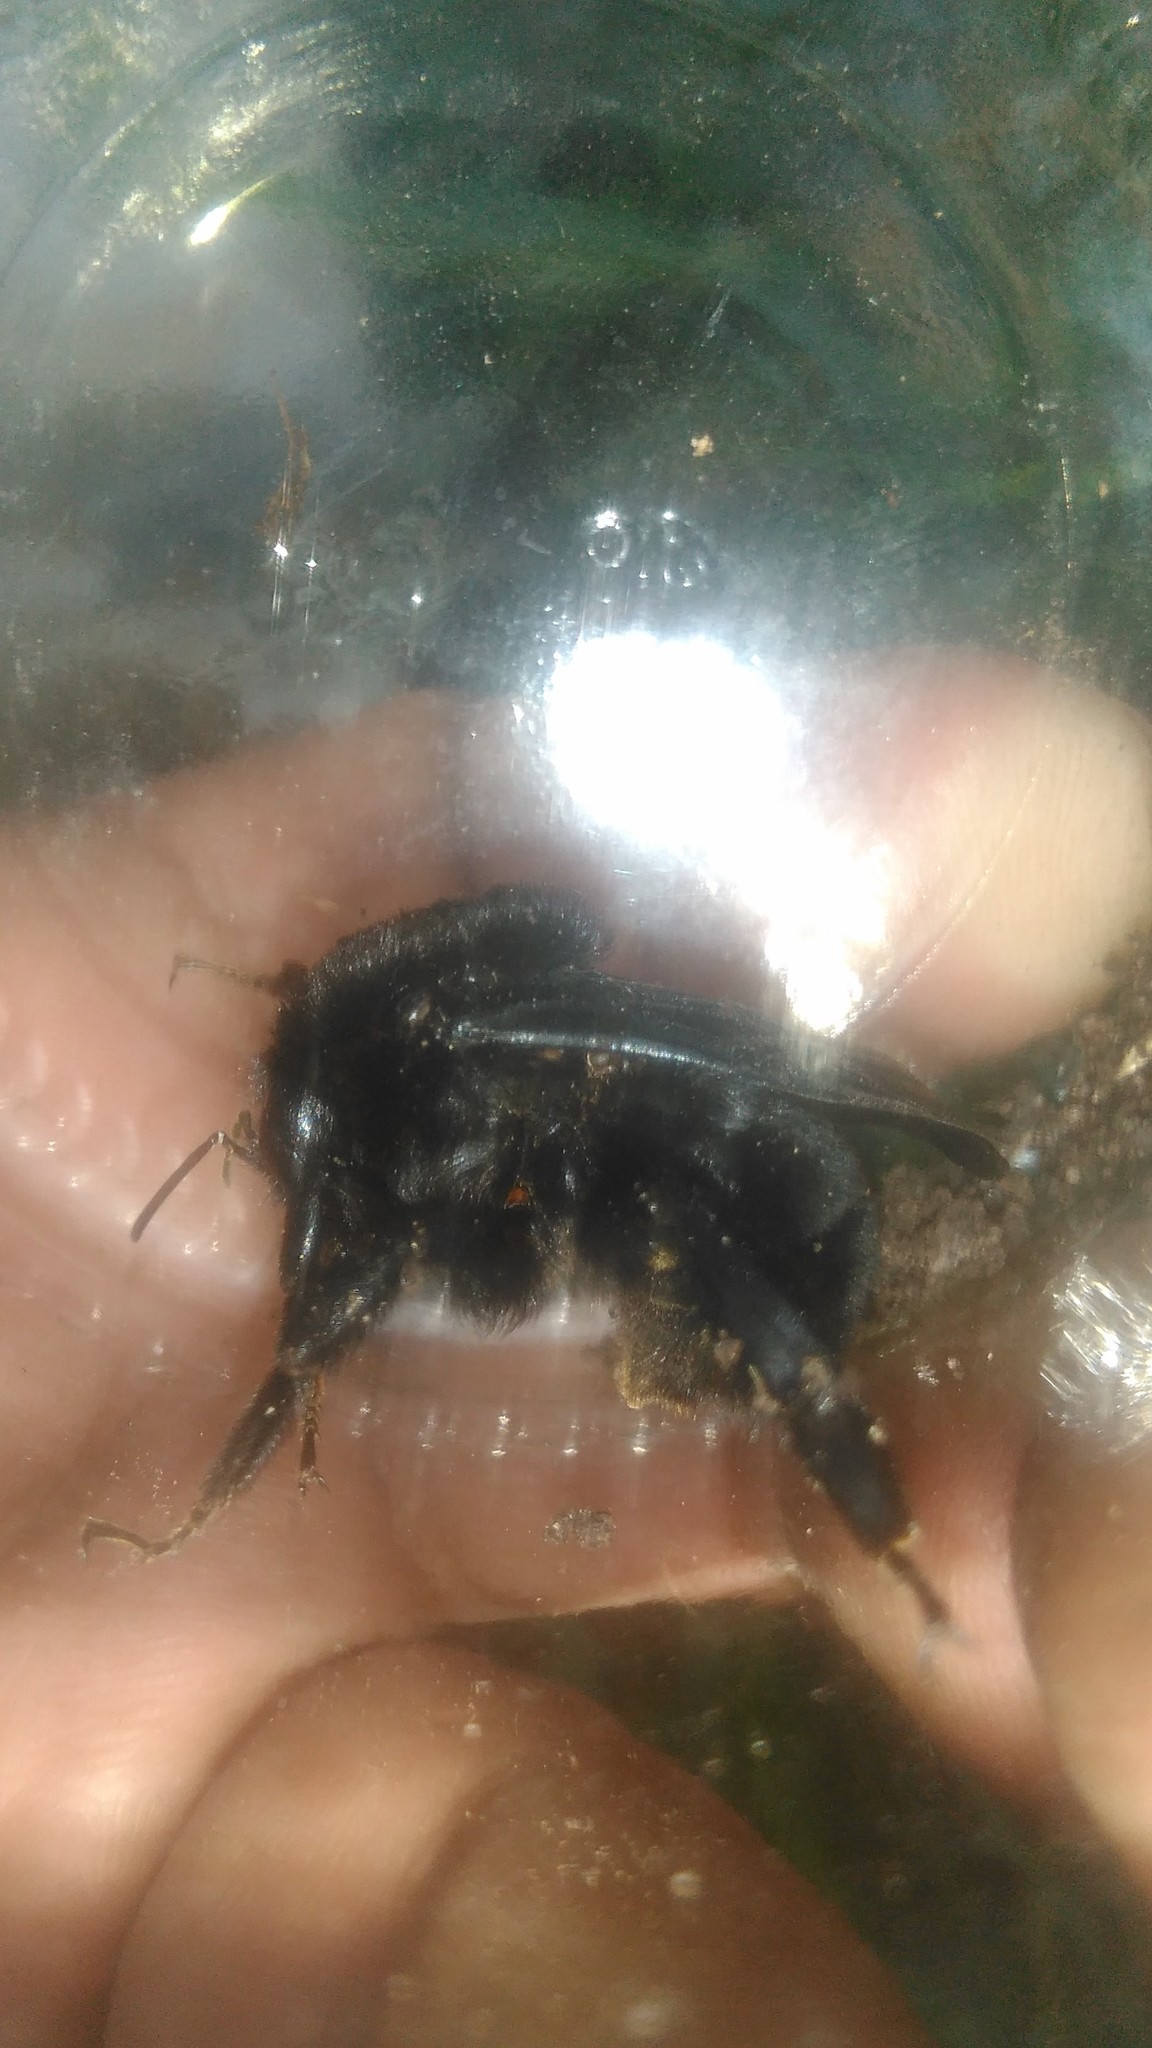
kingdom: Animalia
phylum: Arthropoda
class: Insecta
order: Hymenoptera
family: Apidae
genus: Bombus
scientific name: Bombus pauloensis
